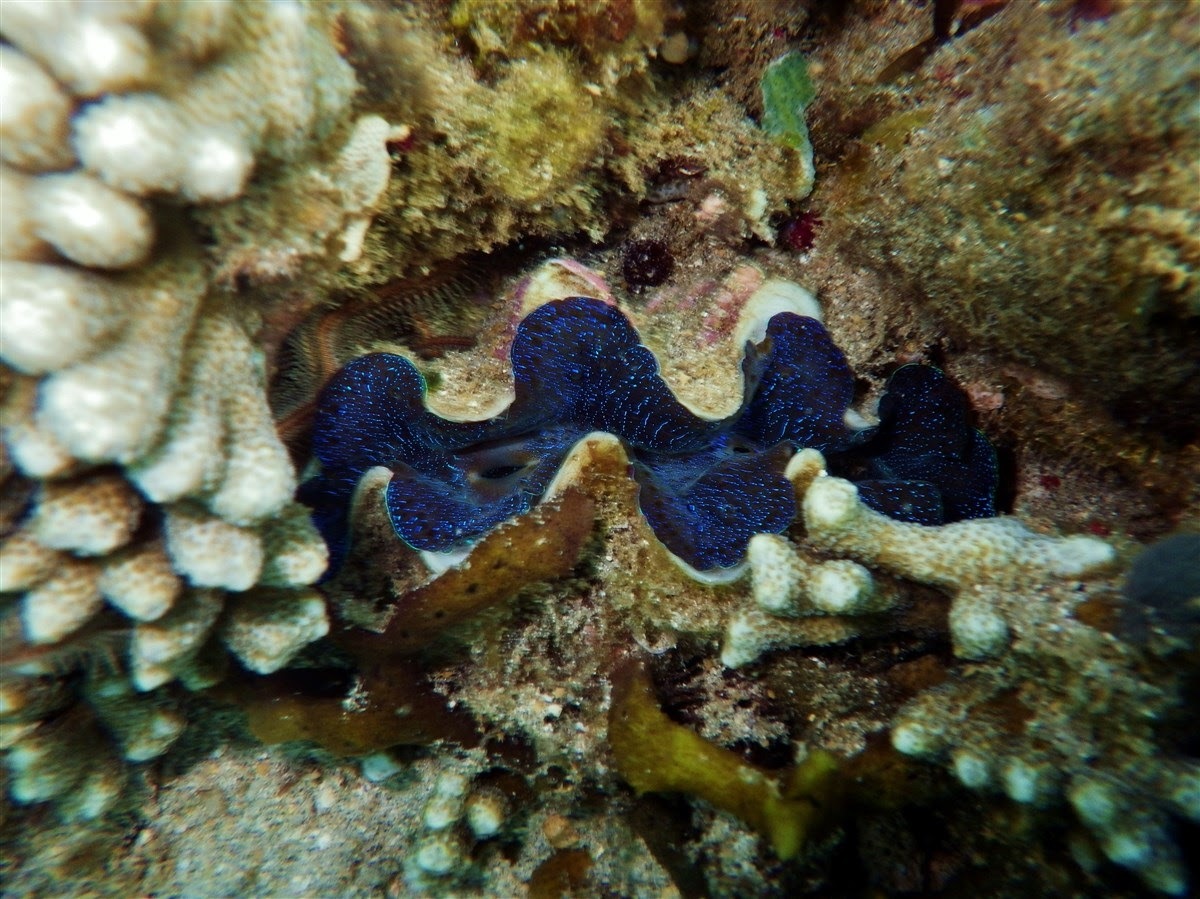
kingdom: Animalia
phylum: Mollusca
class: Bivalvia
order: Cardiida
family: Cardiidae
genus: Tridacna
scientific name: Tridacna maxima
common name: Small giant clam
